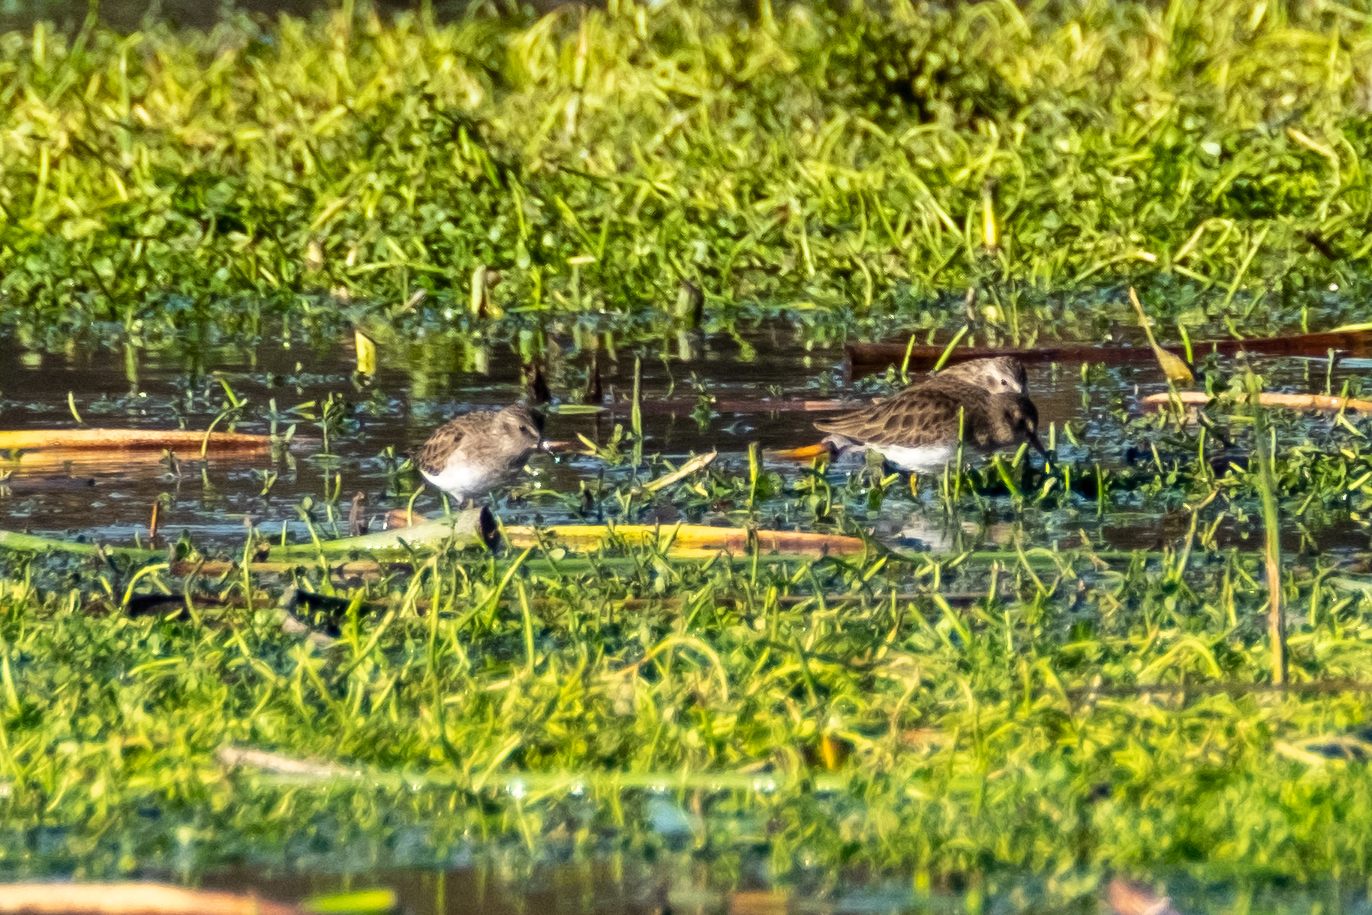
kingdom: Animalia
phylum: Chordata
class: Aves
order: Charadriiformes
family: Scolopacidae
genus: Calidris
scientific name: Calidris minutilla
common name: Least sandpiper
